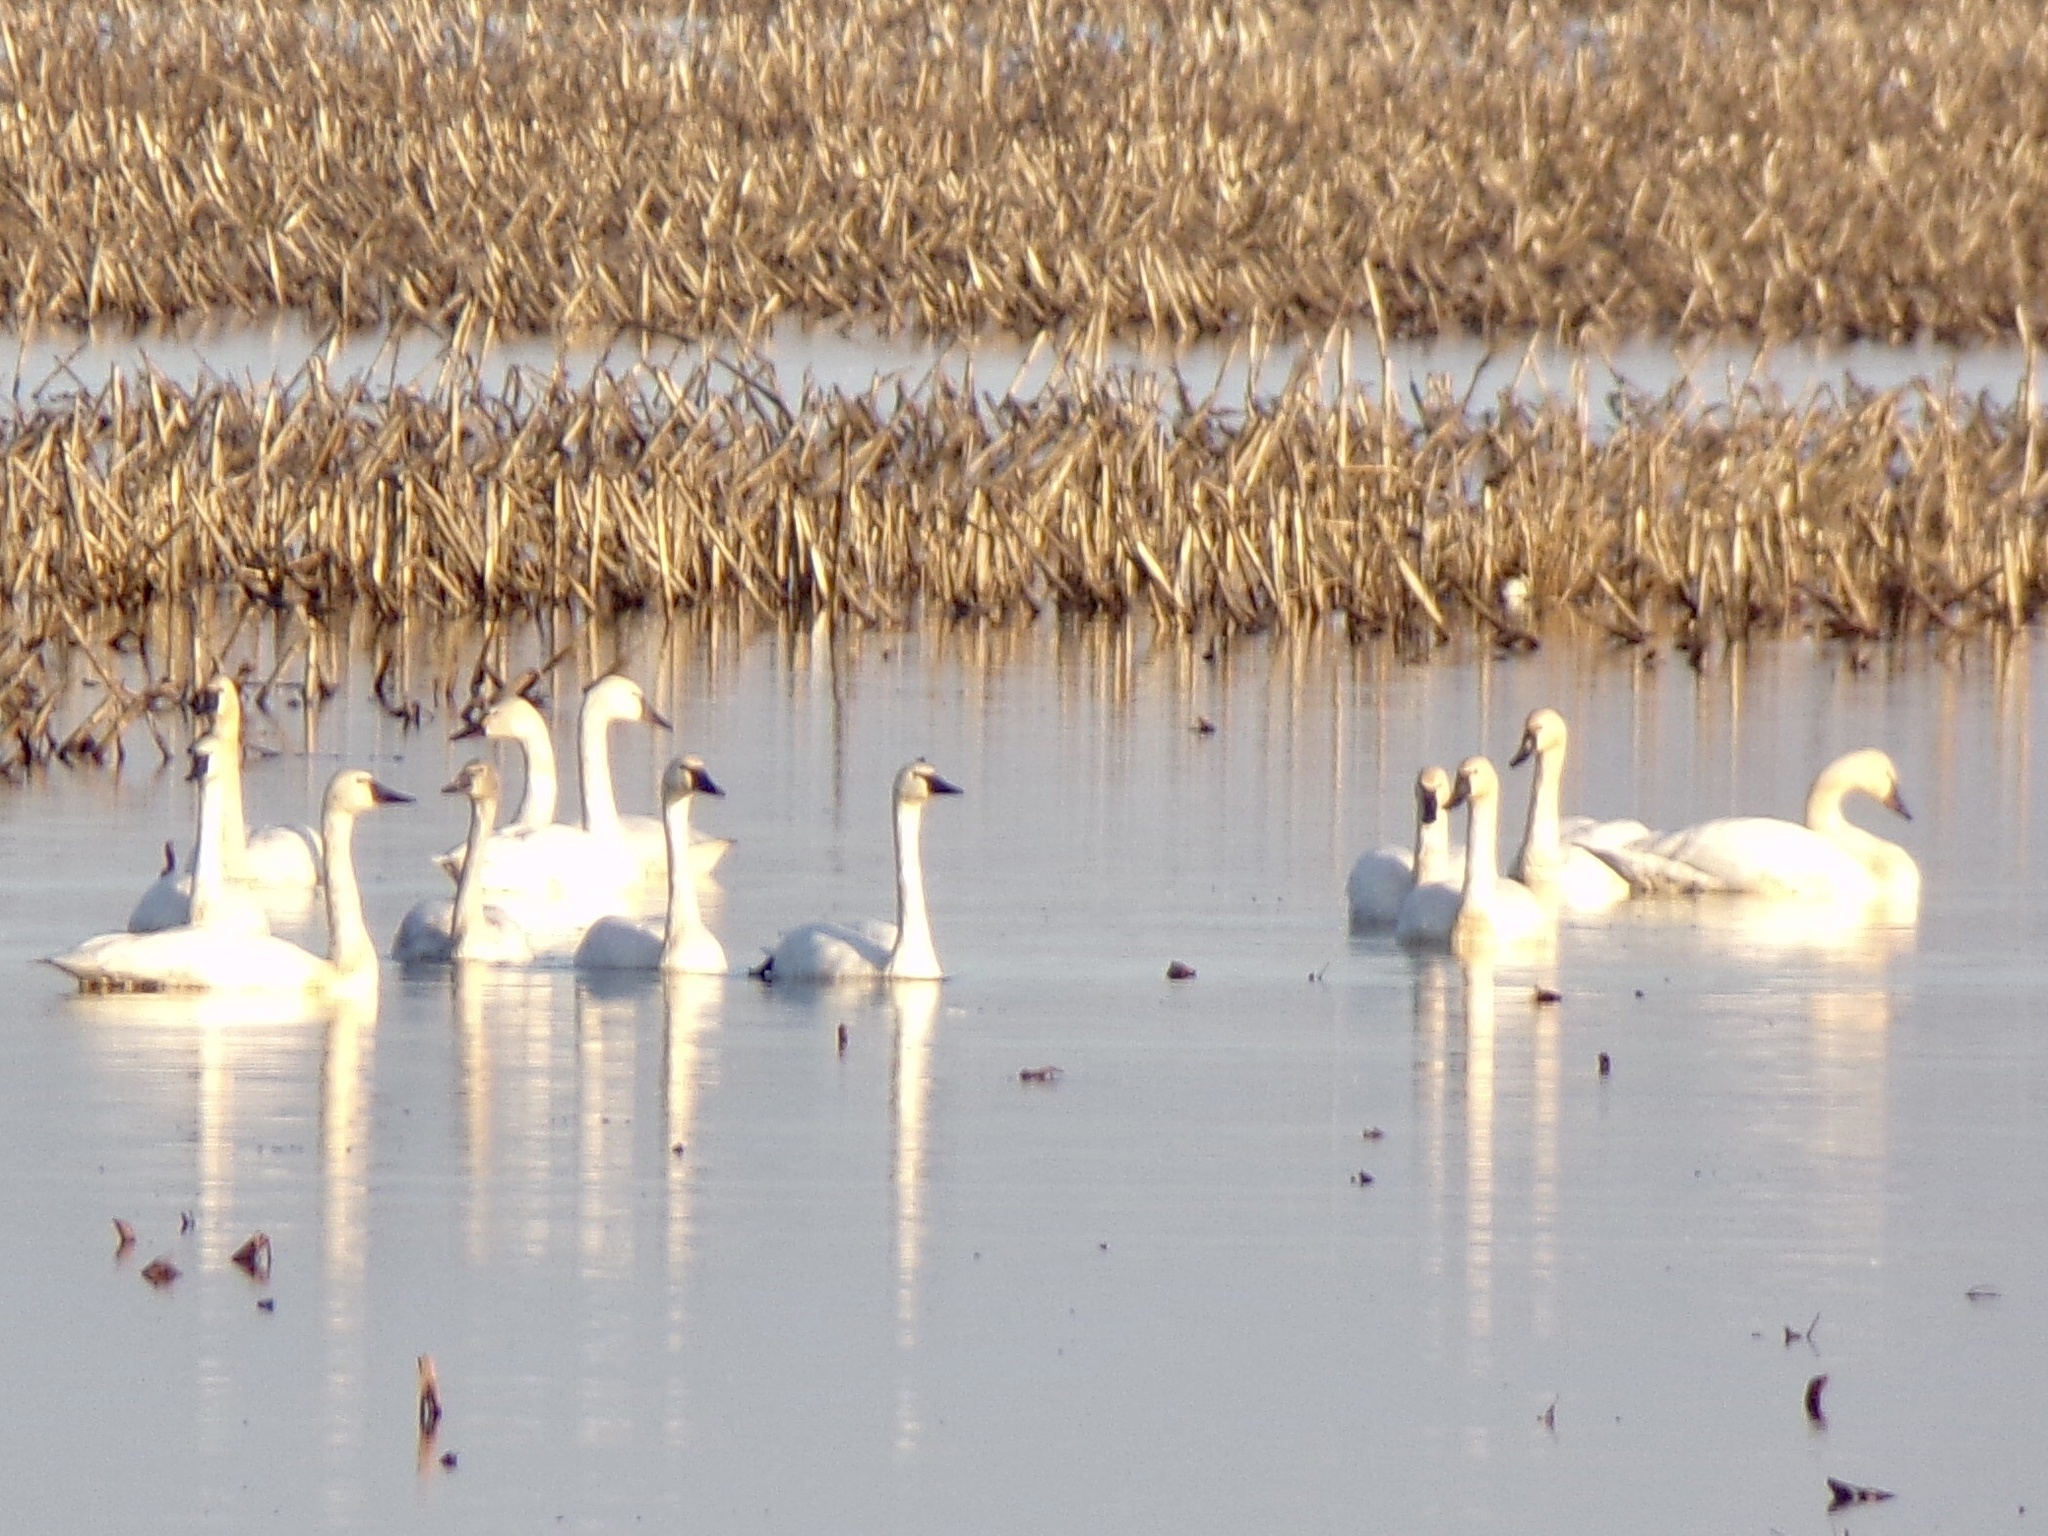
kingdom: Animalia
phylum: Chordata
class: Aves
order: Anseriformes
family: Anatidae
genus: Cygnus
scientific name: Cygnus columbianus
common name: Tundra swan
